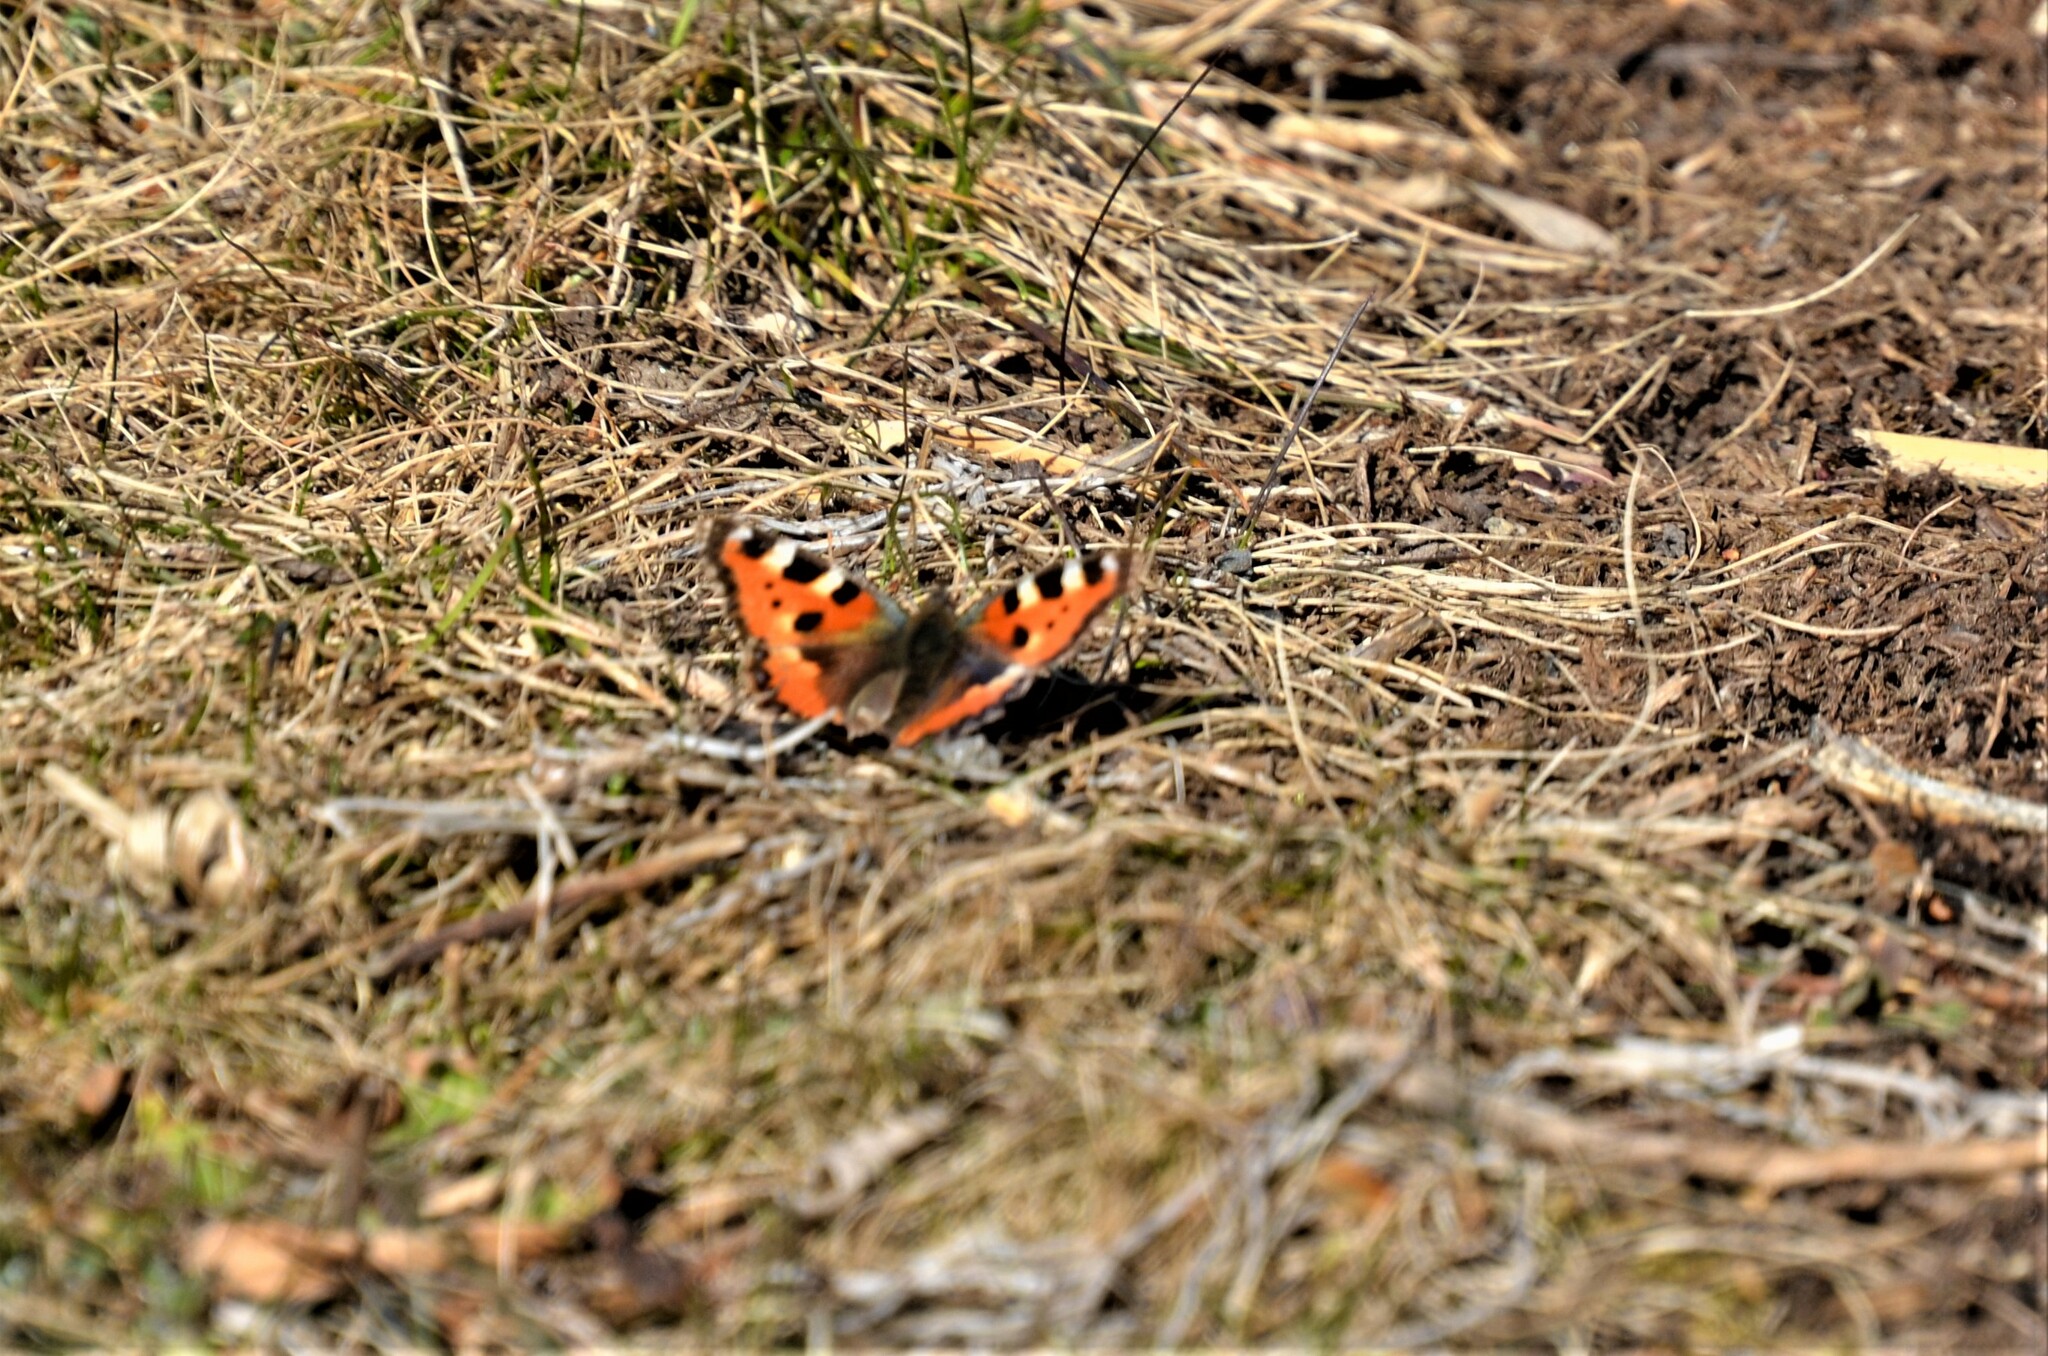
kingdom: Animalia
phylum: Arthropoda
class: Insecta
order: Lepidoptera
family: Nymphalidae
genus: Aglais
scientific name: Aglais urticae
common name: Small tortoiseshell
